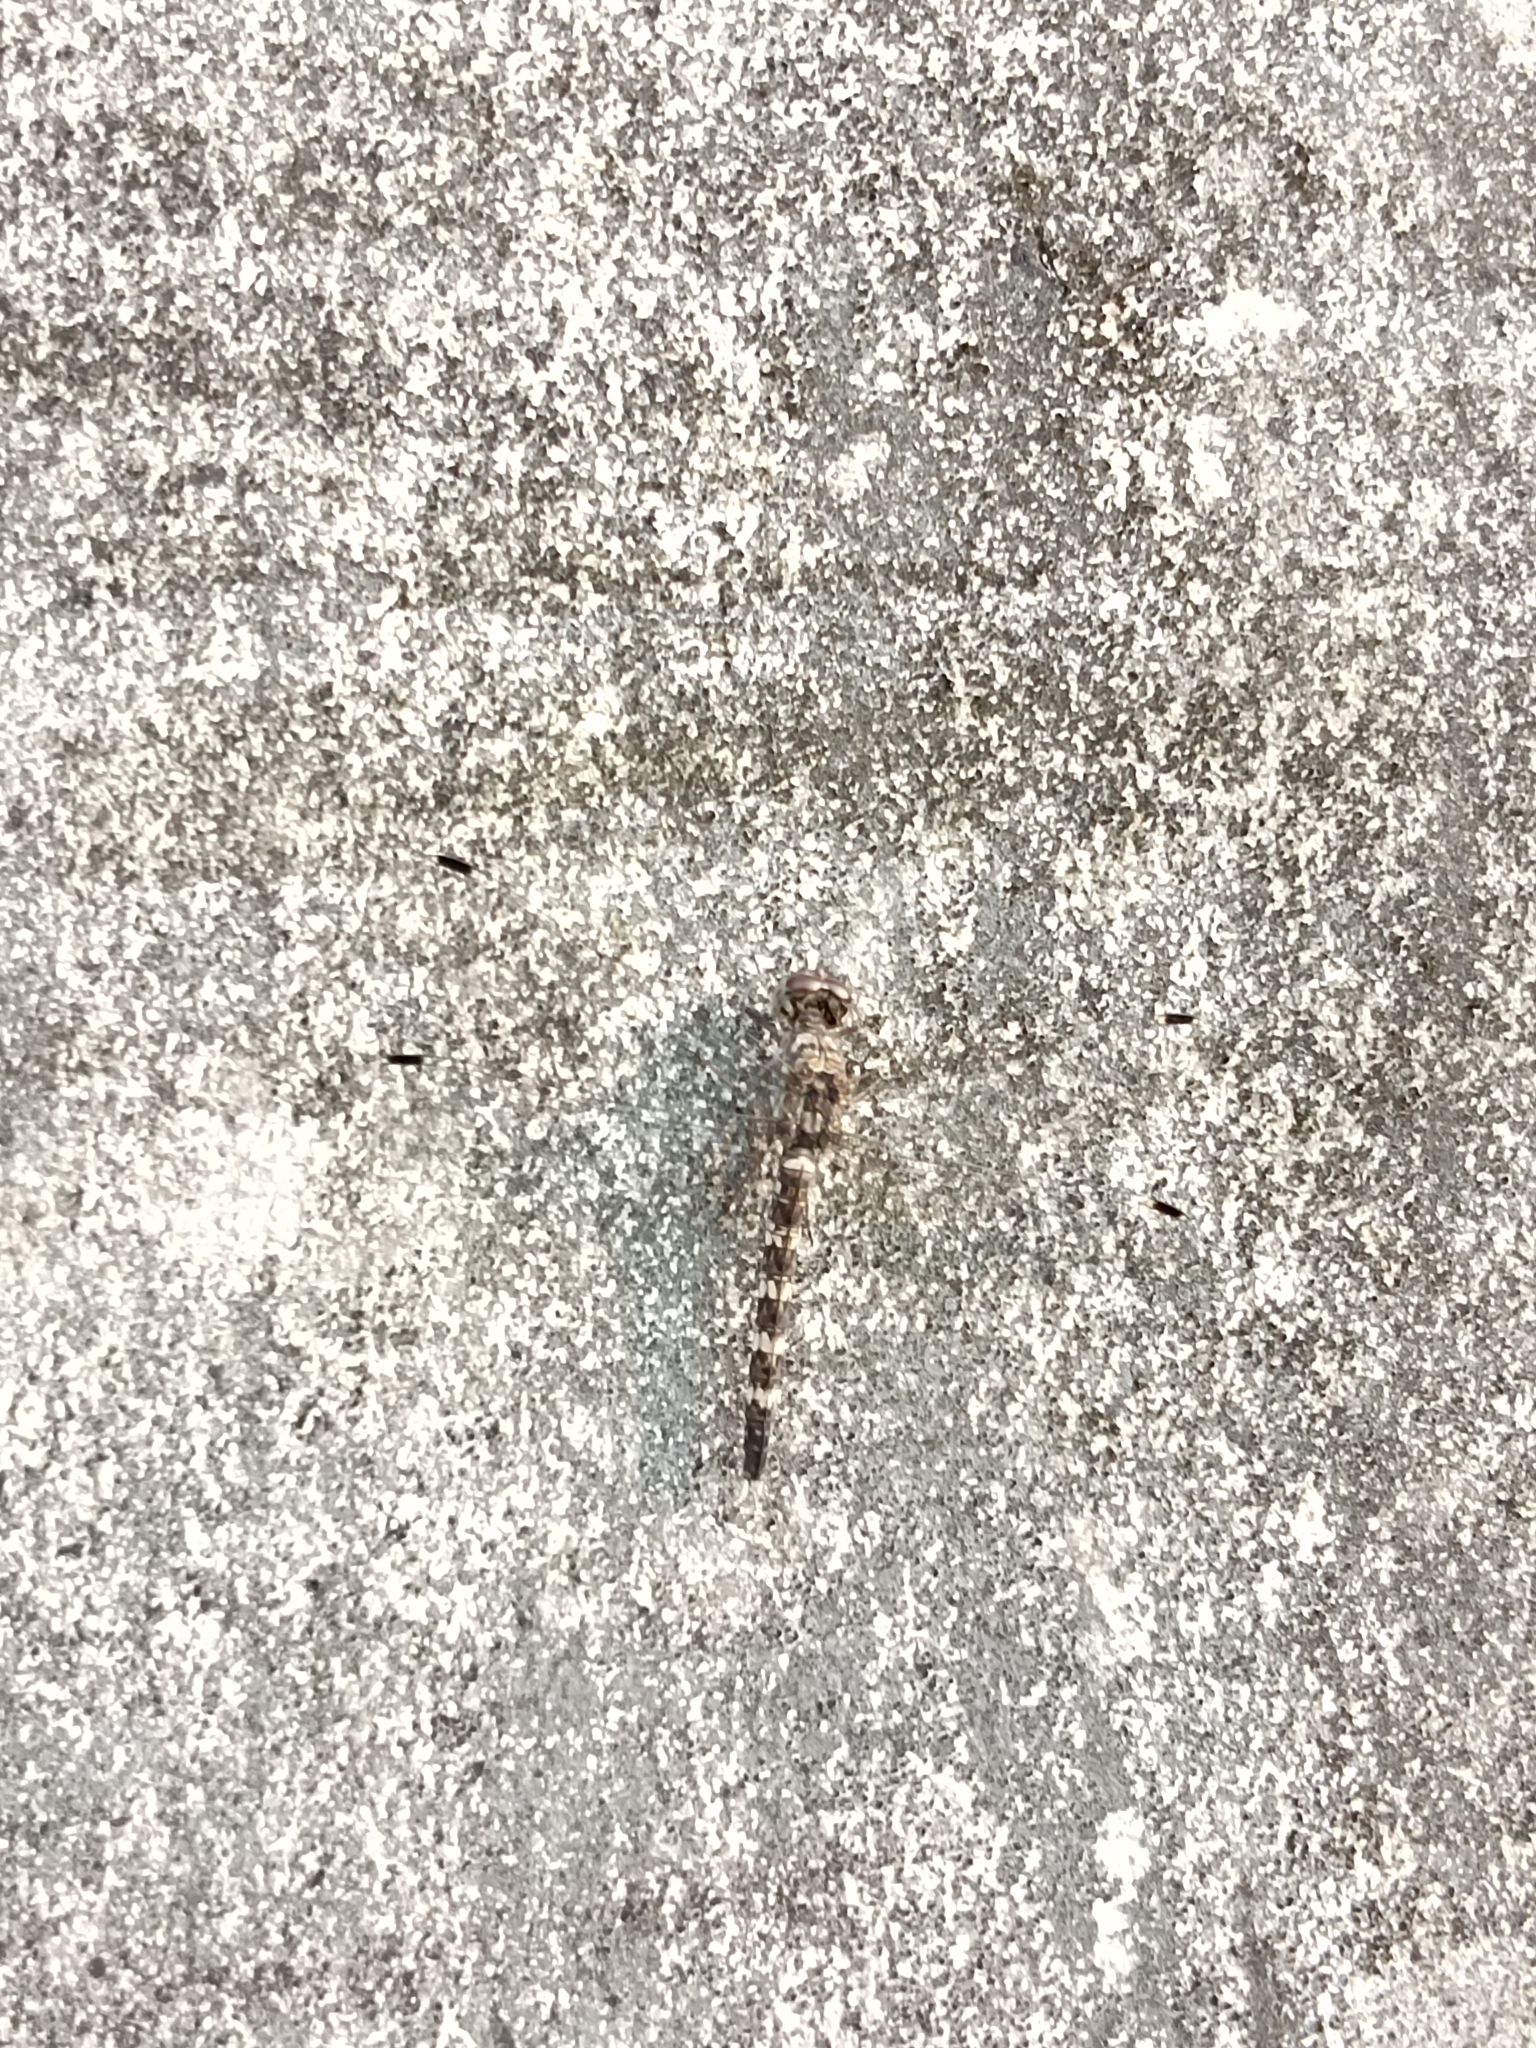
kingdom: Animalia
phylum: Arthropoda
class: Insecta
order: Odonata
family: Libellulidae
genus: Bradinopyga
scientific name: Bradinopyga geminata
